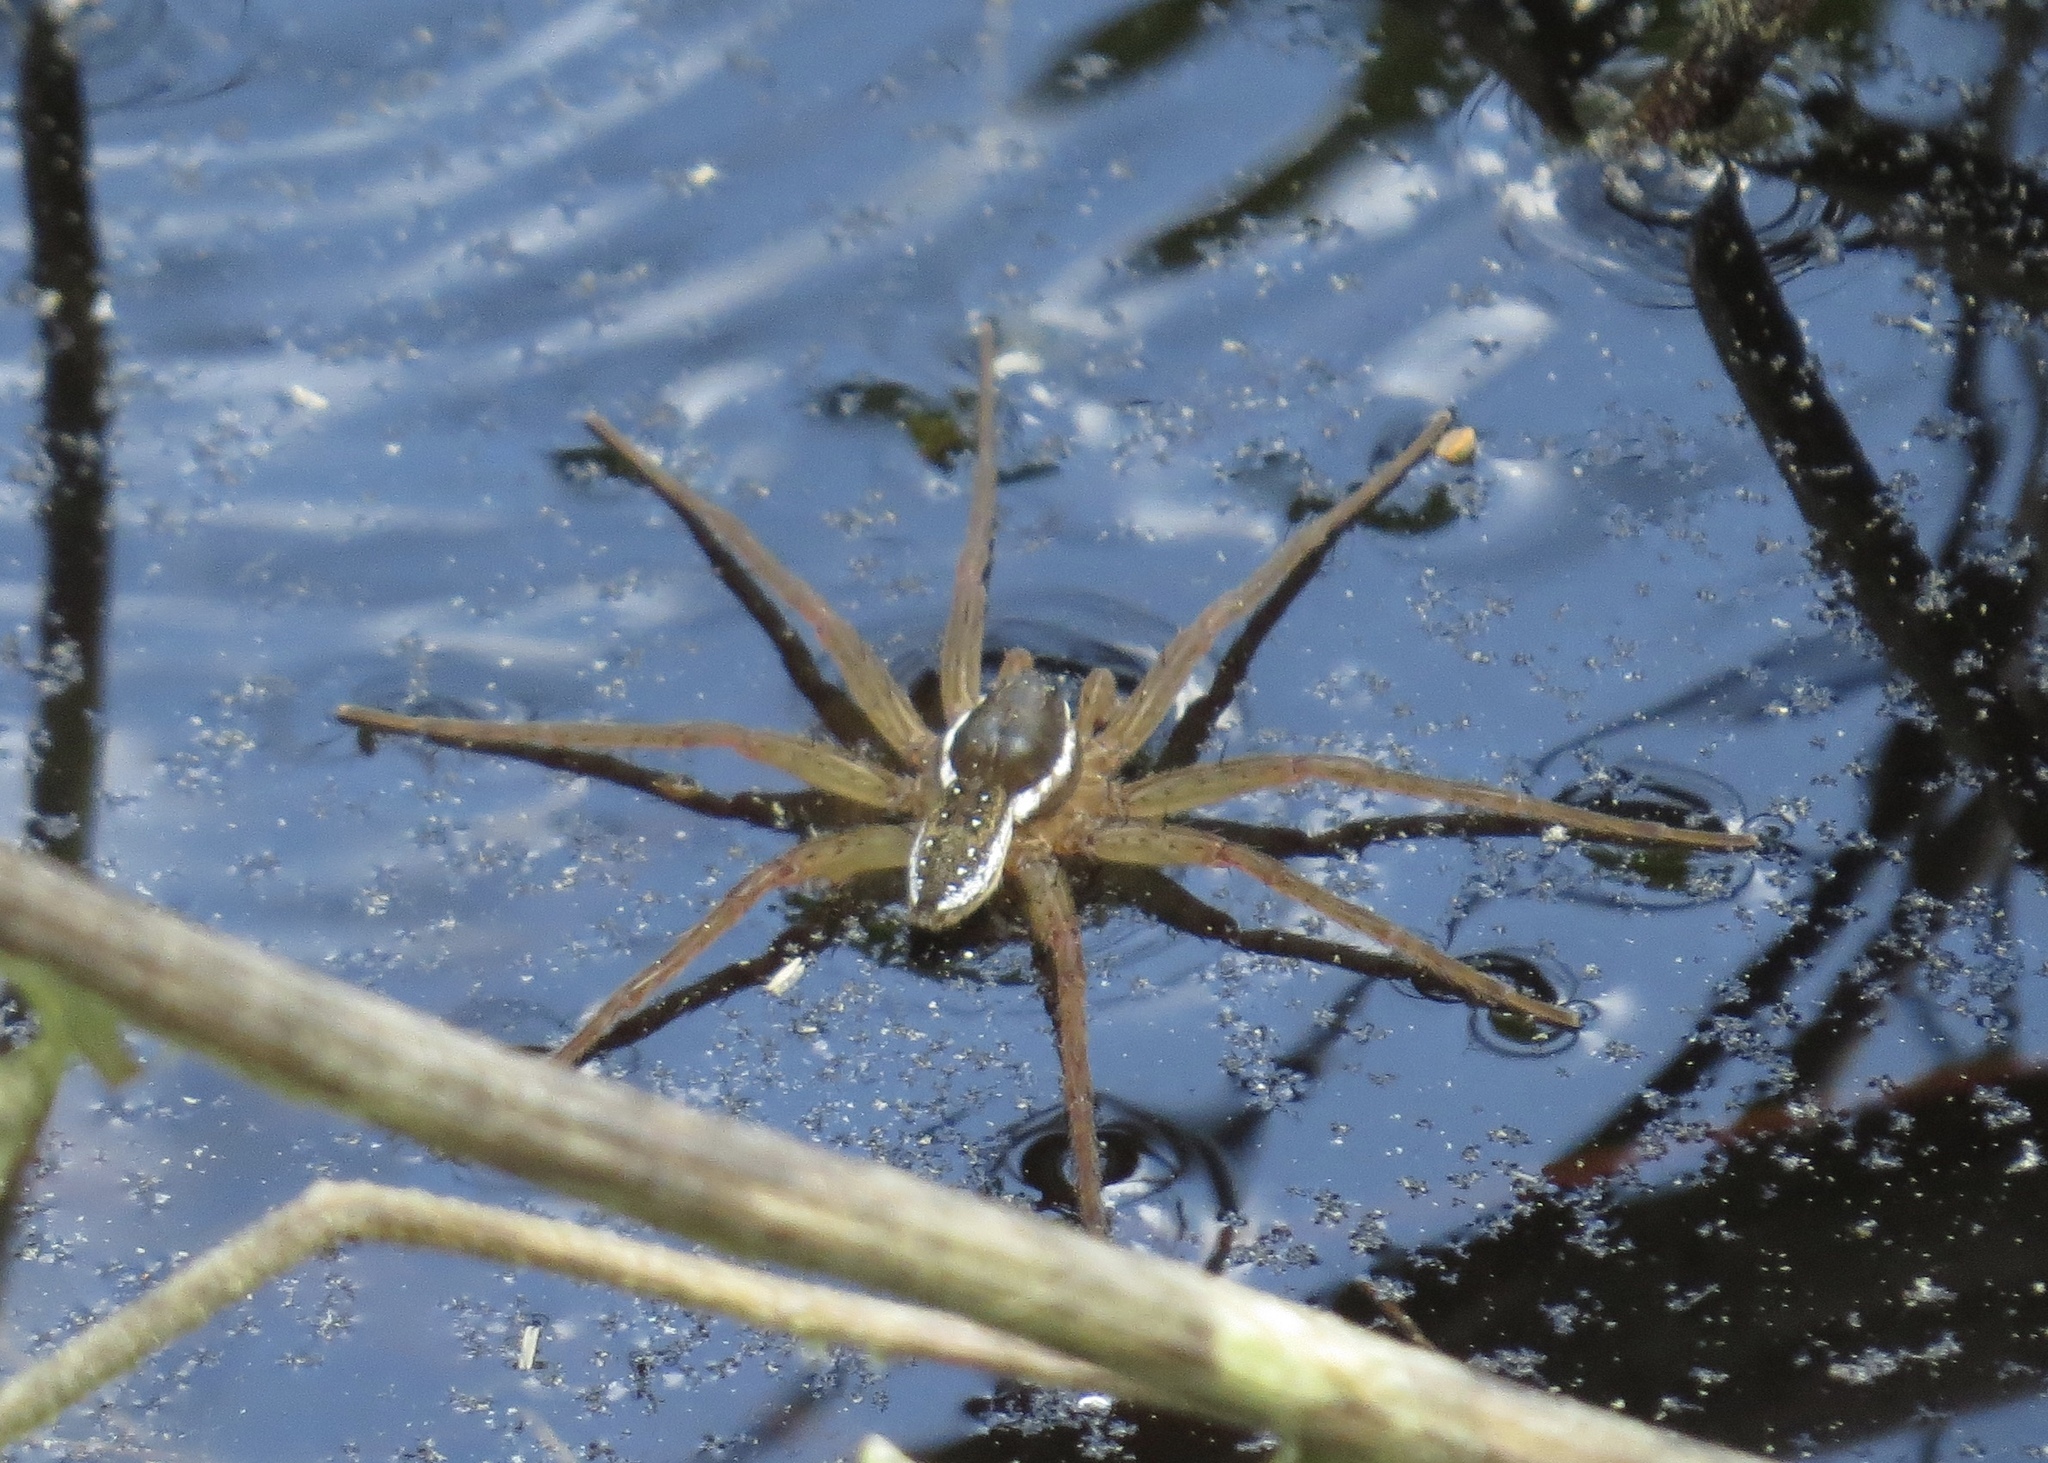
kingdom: Animalia
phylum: Arthropoda
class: Arachnida
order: Araneae
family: Pisauridae
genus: Dolomedes
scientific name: Dolomedes triton
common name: Six-spotted fishing spider
